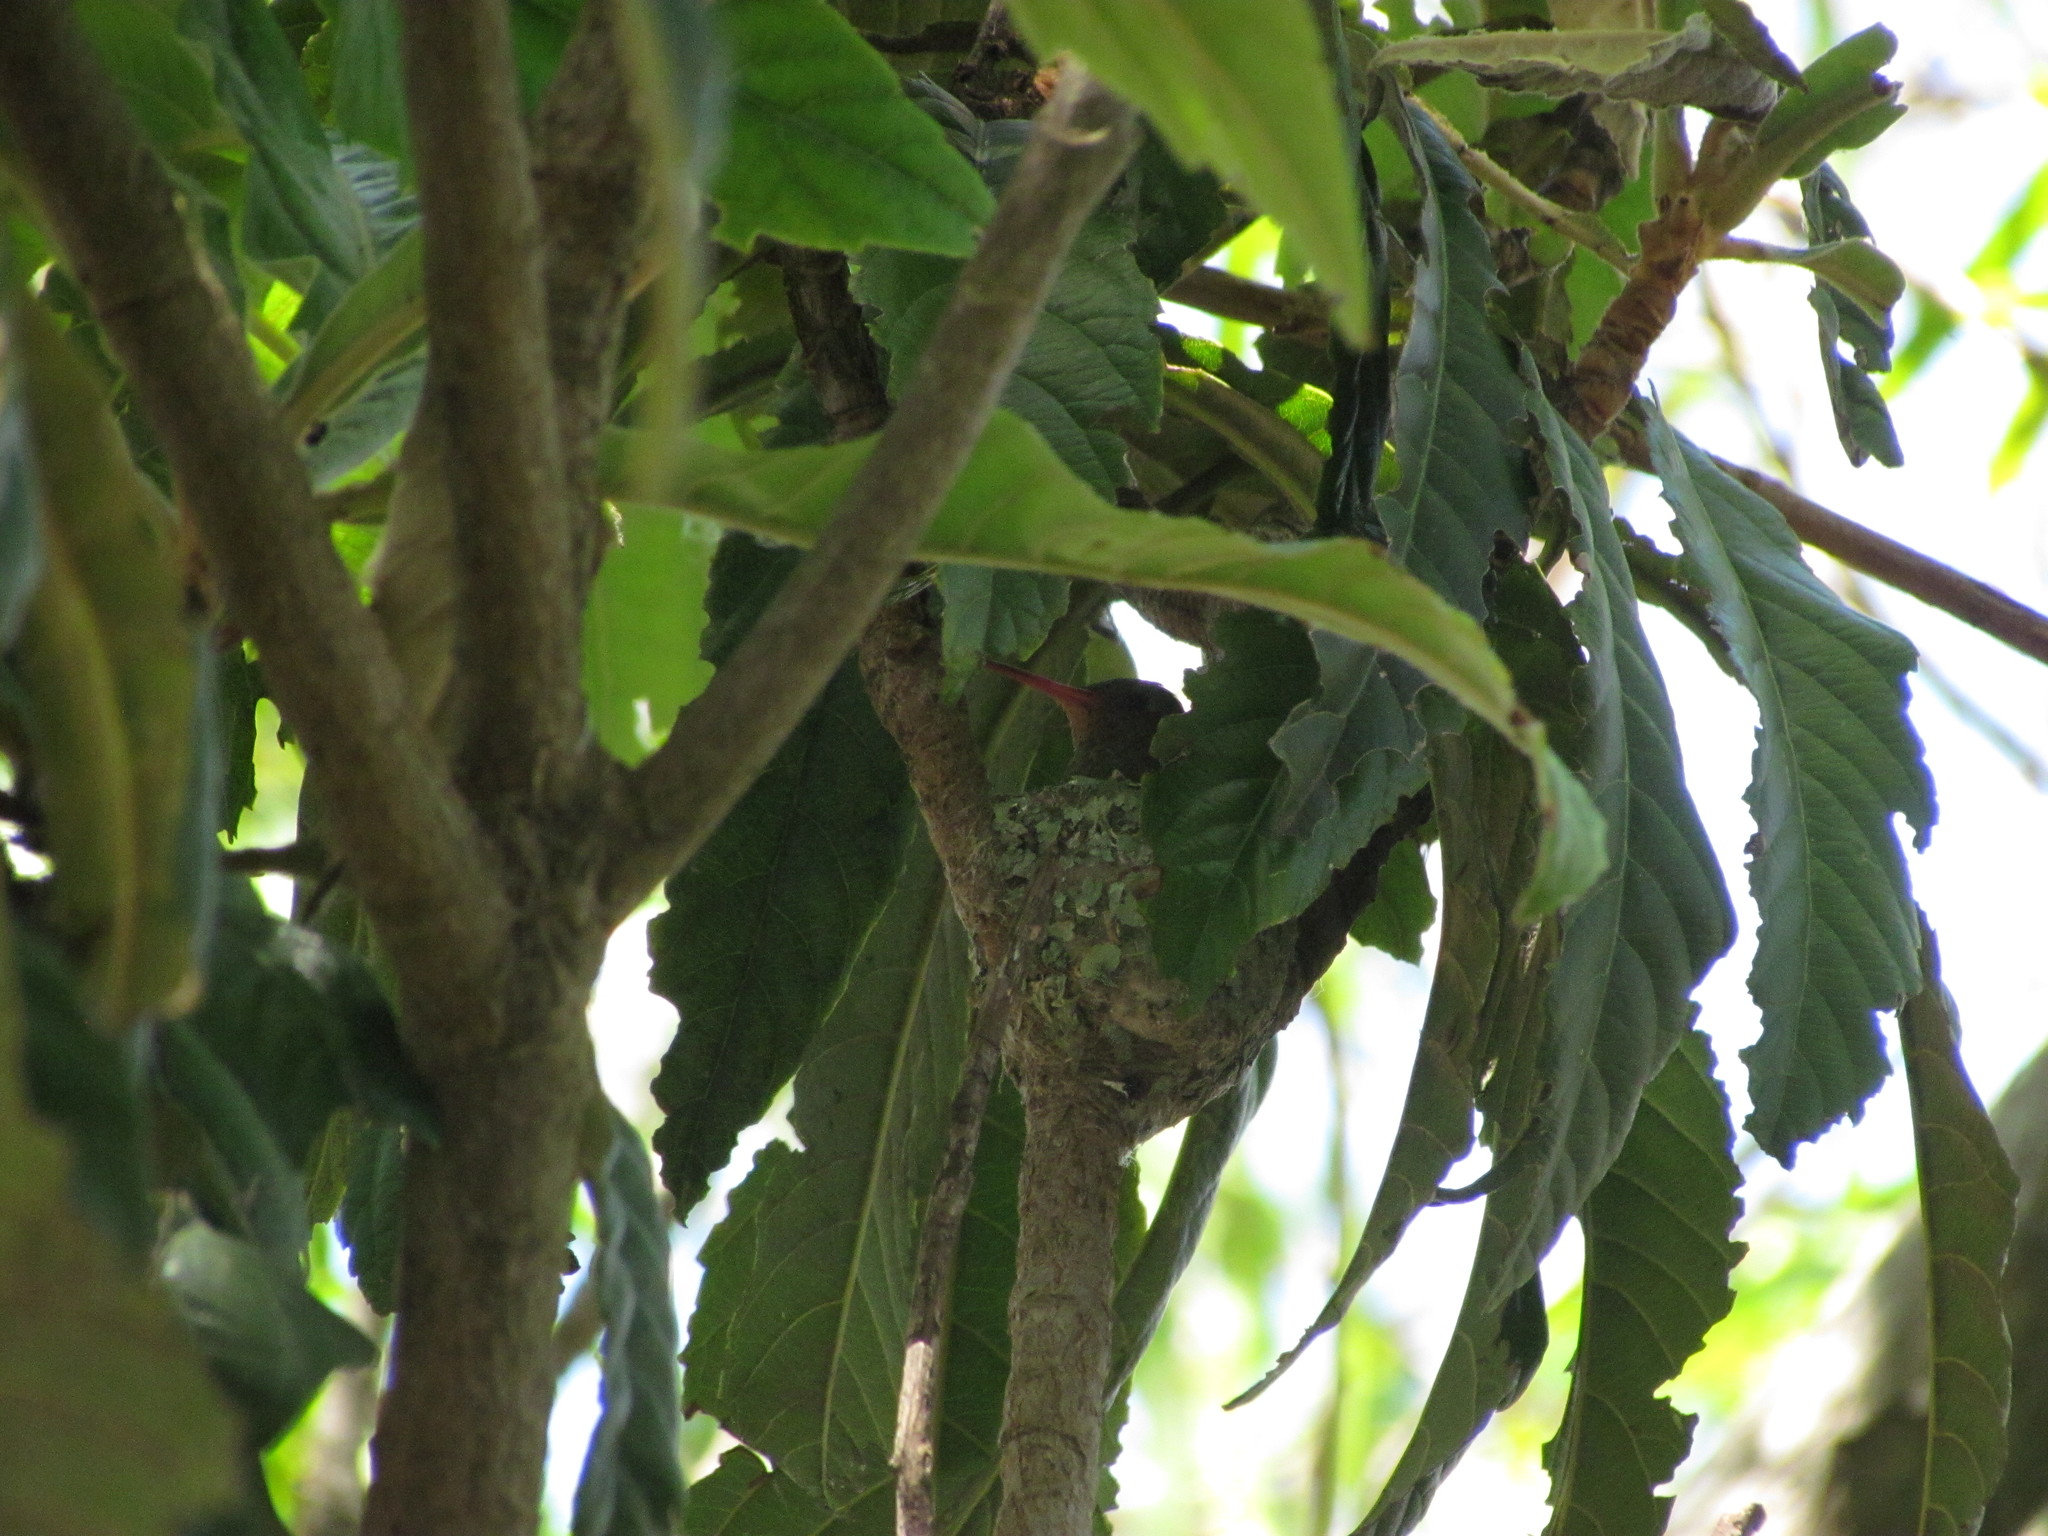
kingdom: Animalia
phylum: Chordata
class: Aves
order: Apodiformes
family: Trochilidae
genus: Chlorostilbon
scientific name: Chlorostilbon lucidus
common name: Glittering-bellied emerald
